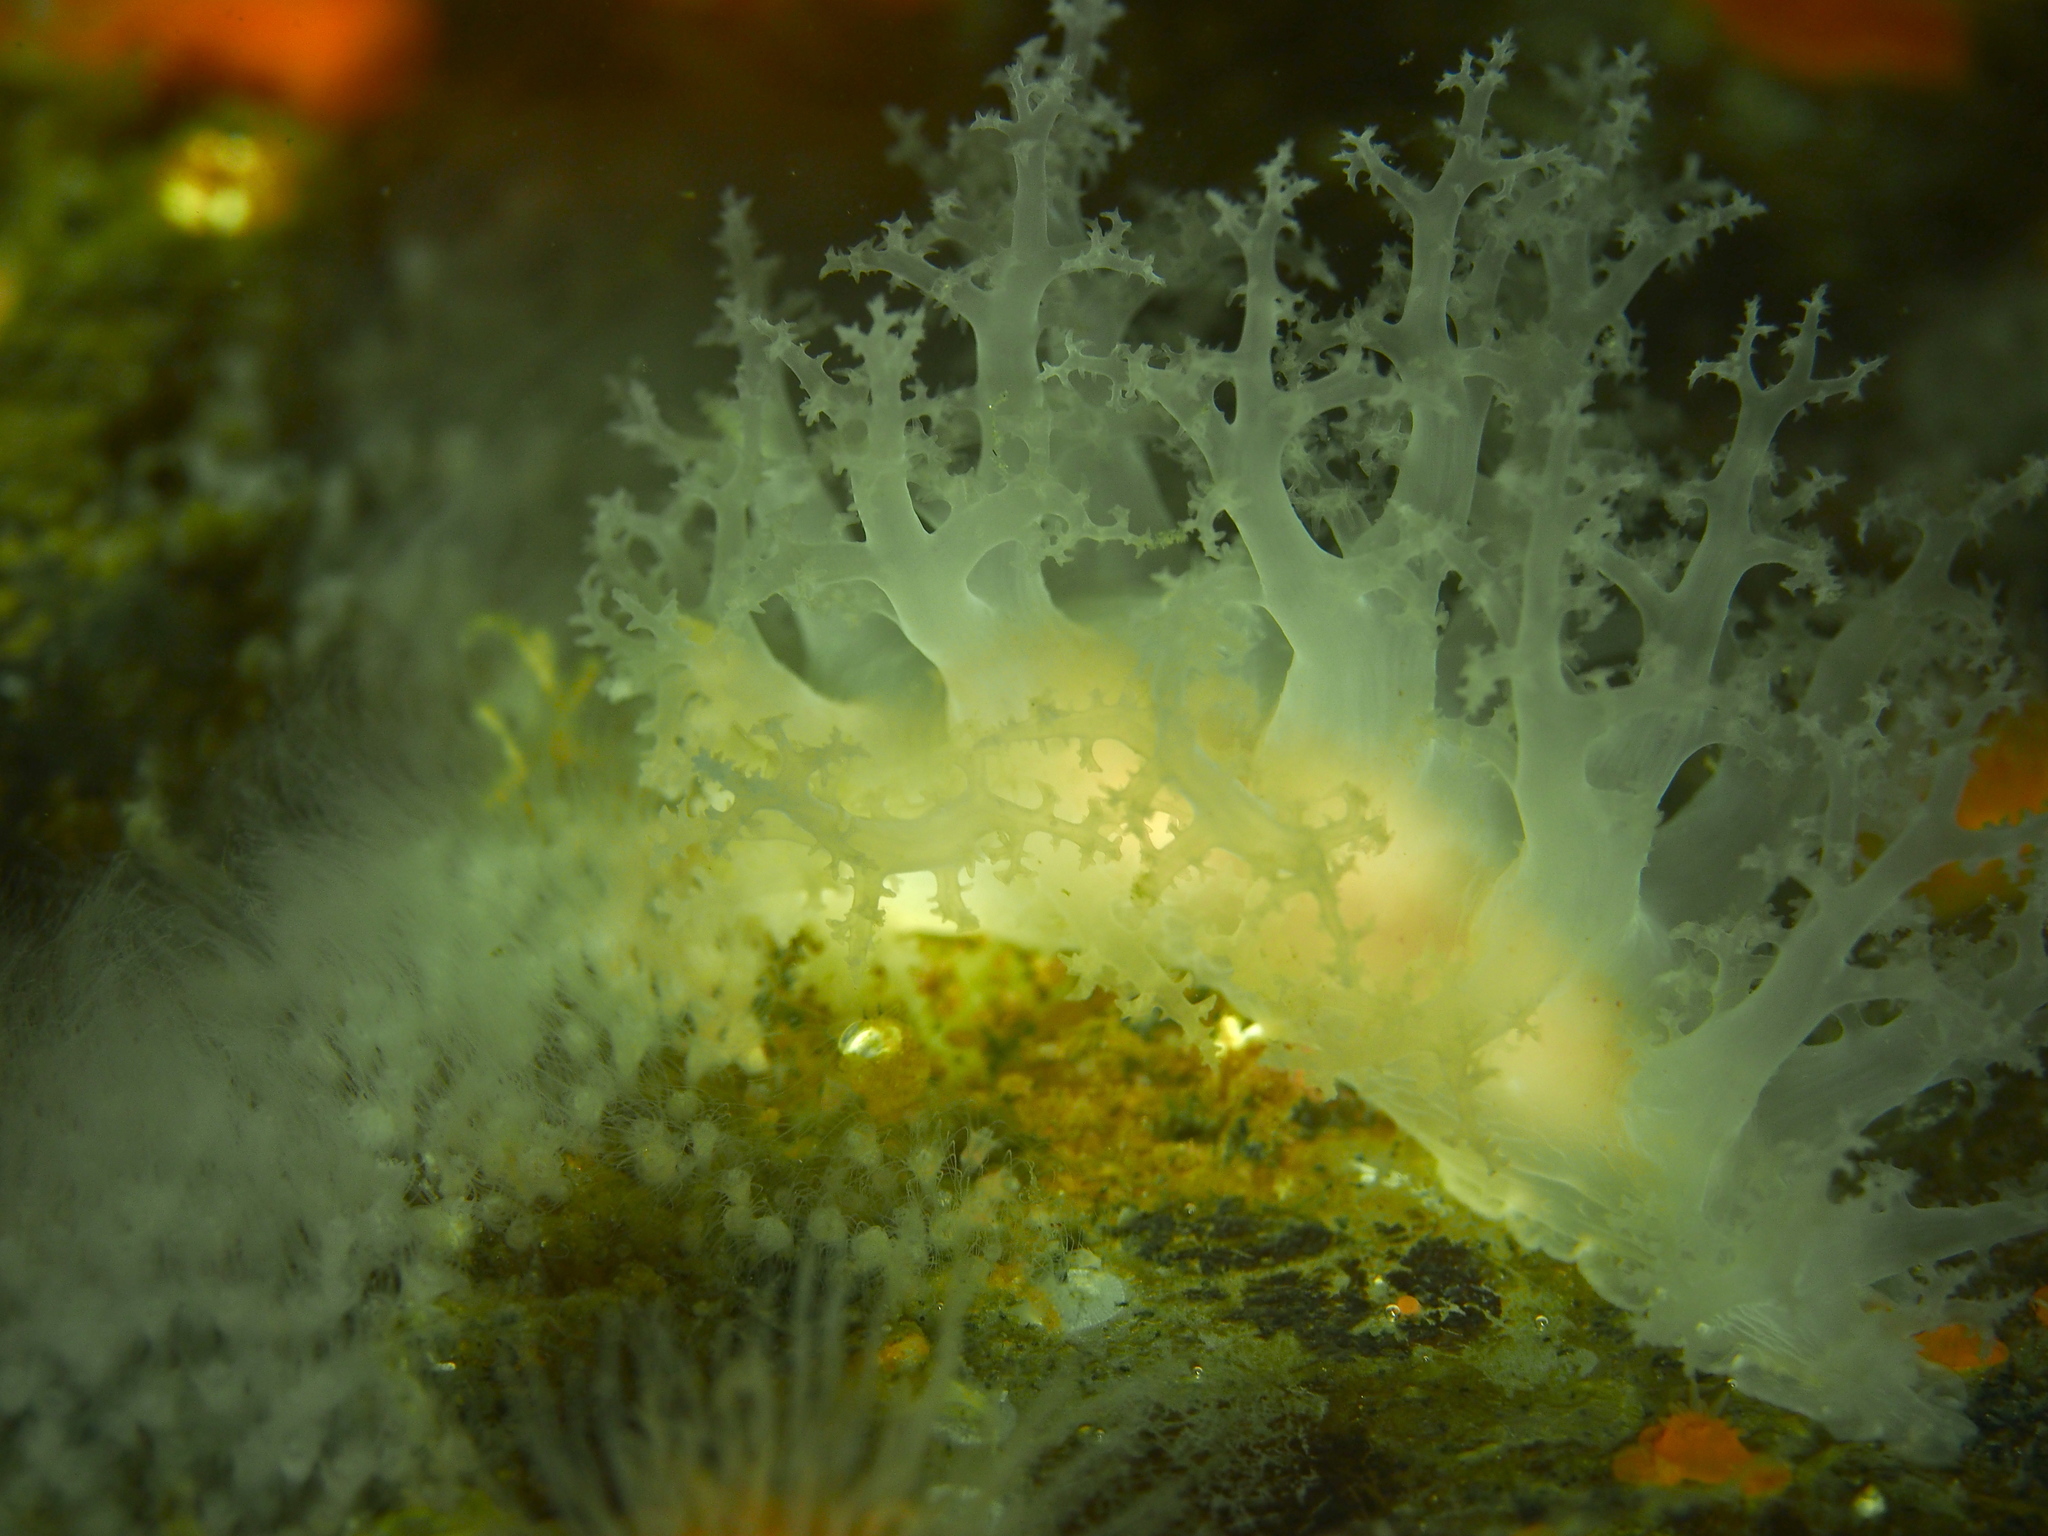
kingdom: Animalia
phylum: Mollusca
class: Gastropoda
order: Nudibranchia
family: Dendronotidae
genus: Dendronotus
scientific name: Dendronotus lacteus
